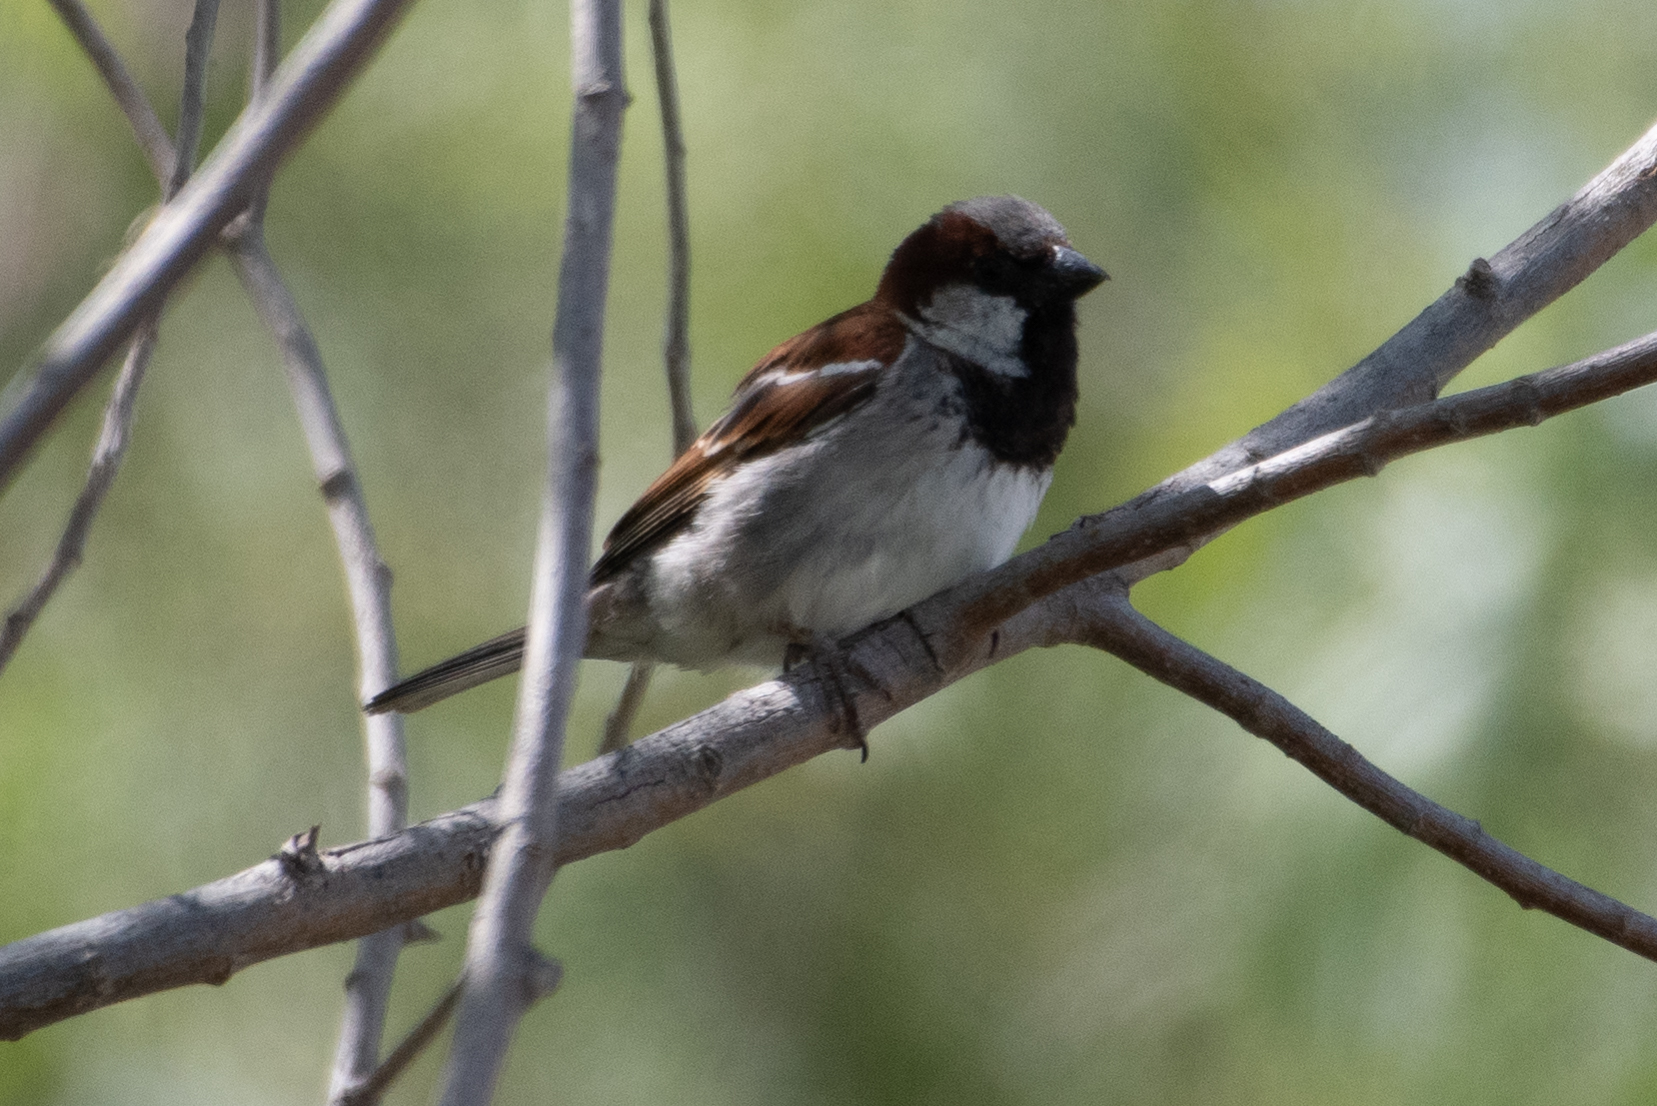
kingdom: Animalia
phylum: Chordata
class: Aves
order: Passeriformes
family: Passeridae
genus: Passer
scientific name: Passer domesticus
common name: House sparrow
